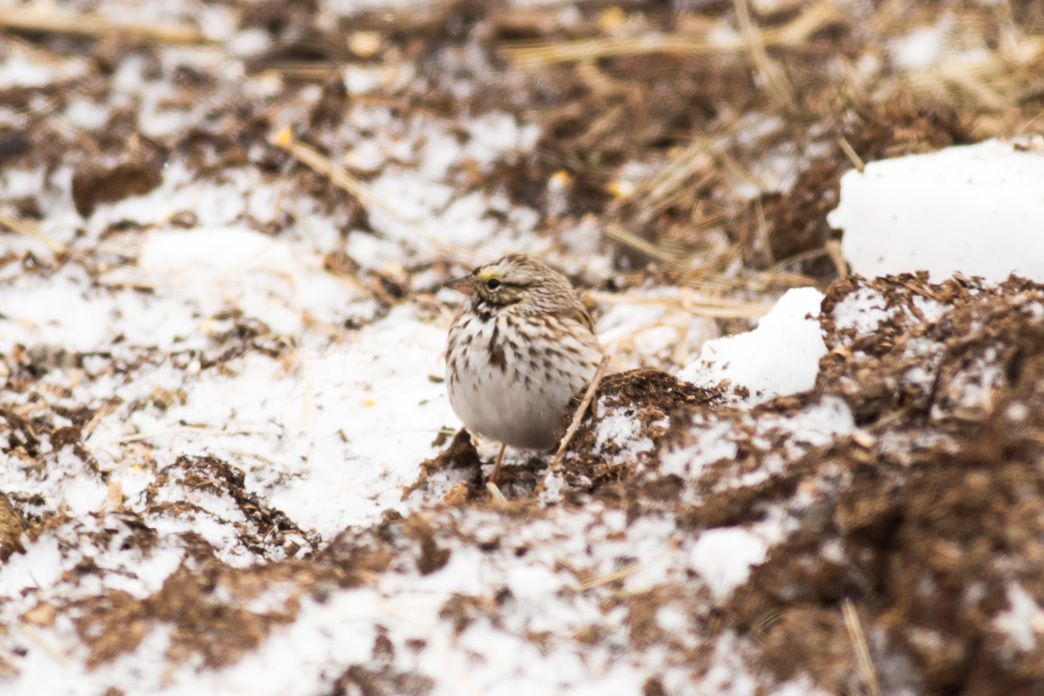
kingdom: Animalia
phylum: Chordata
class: Aves
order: Passeriformes
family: Passerellidae
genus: Passerculus
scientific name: Passerculus sandwichensis
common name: Savannah sparrow
